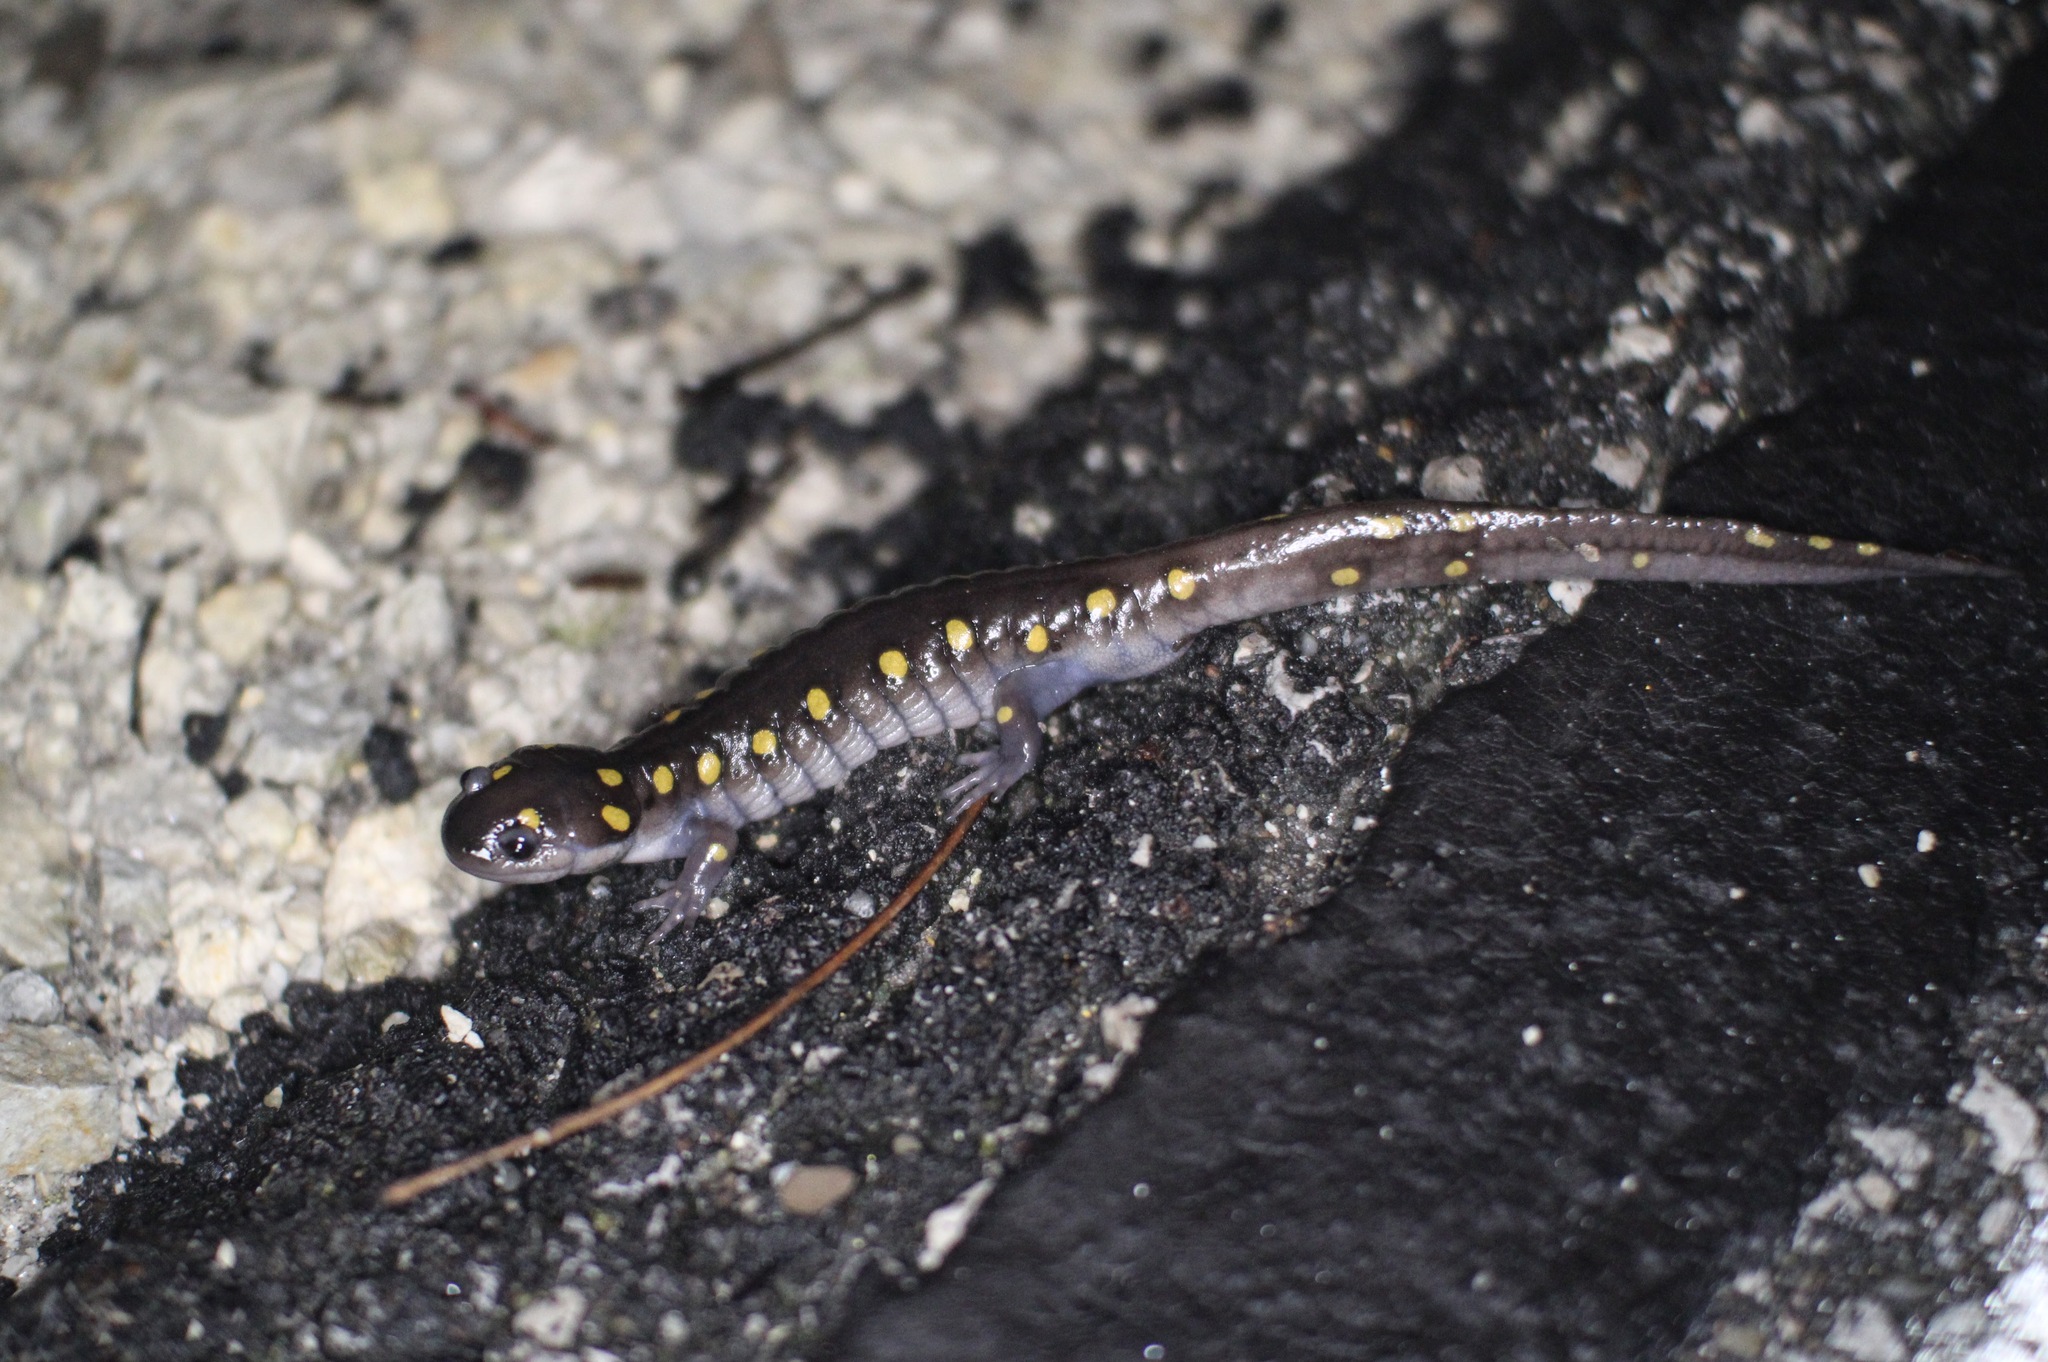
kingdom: Animalia
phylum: Chordata
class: Amphibia
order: Caudata
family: Ambystomatidae
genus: Ambystoma
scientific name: Ambystoma maculatum
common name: Spotted salamander
